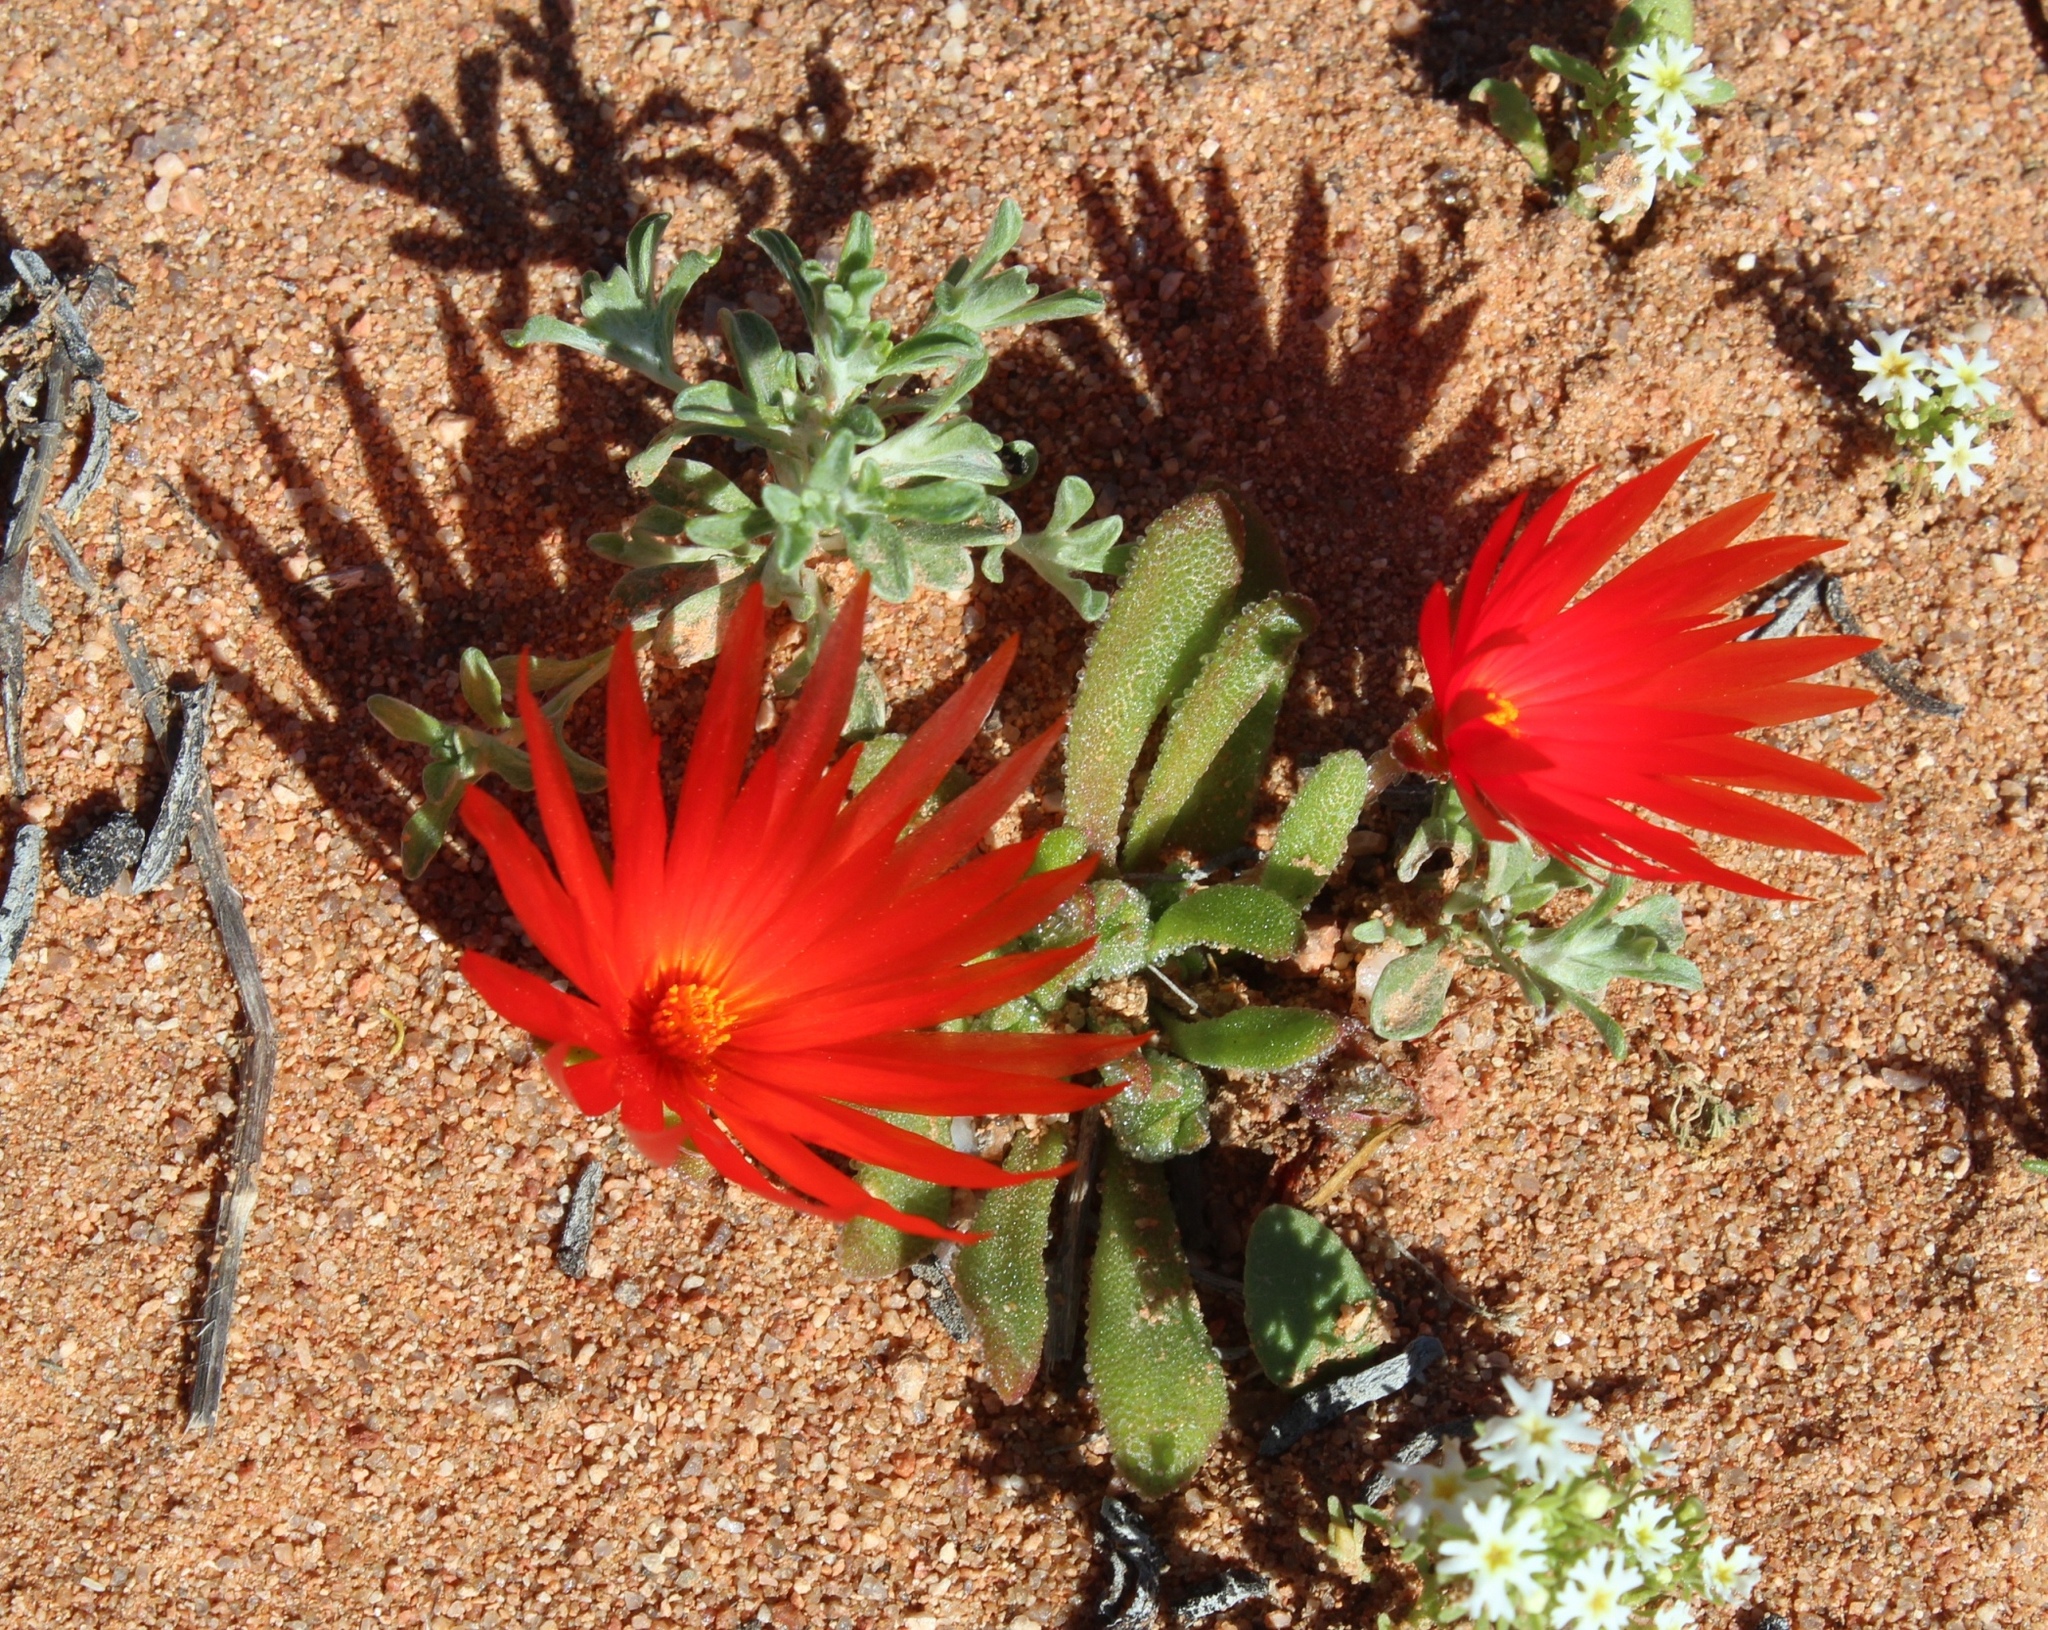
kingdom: Plantae
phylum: Tracheophyta
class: Magnoliopsida
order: Caryophyllales
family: Aizoaceae
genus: Cleretum
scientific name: Cleretum rourkei
